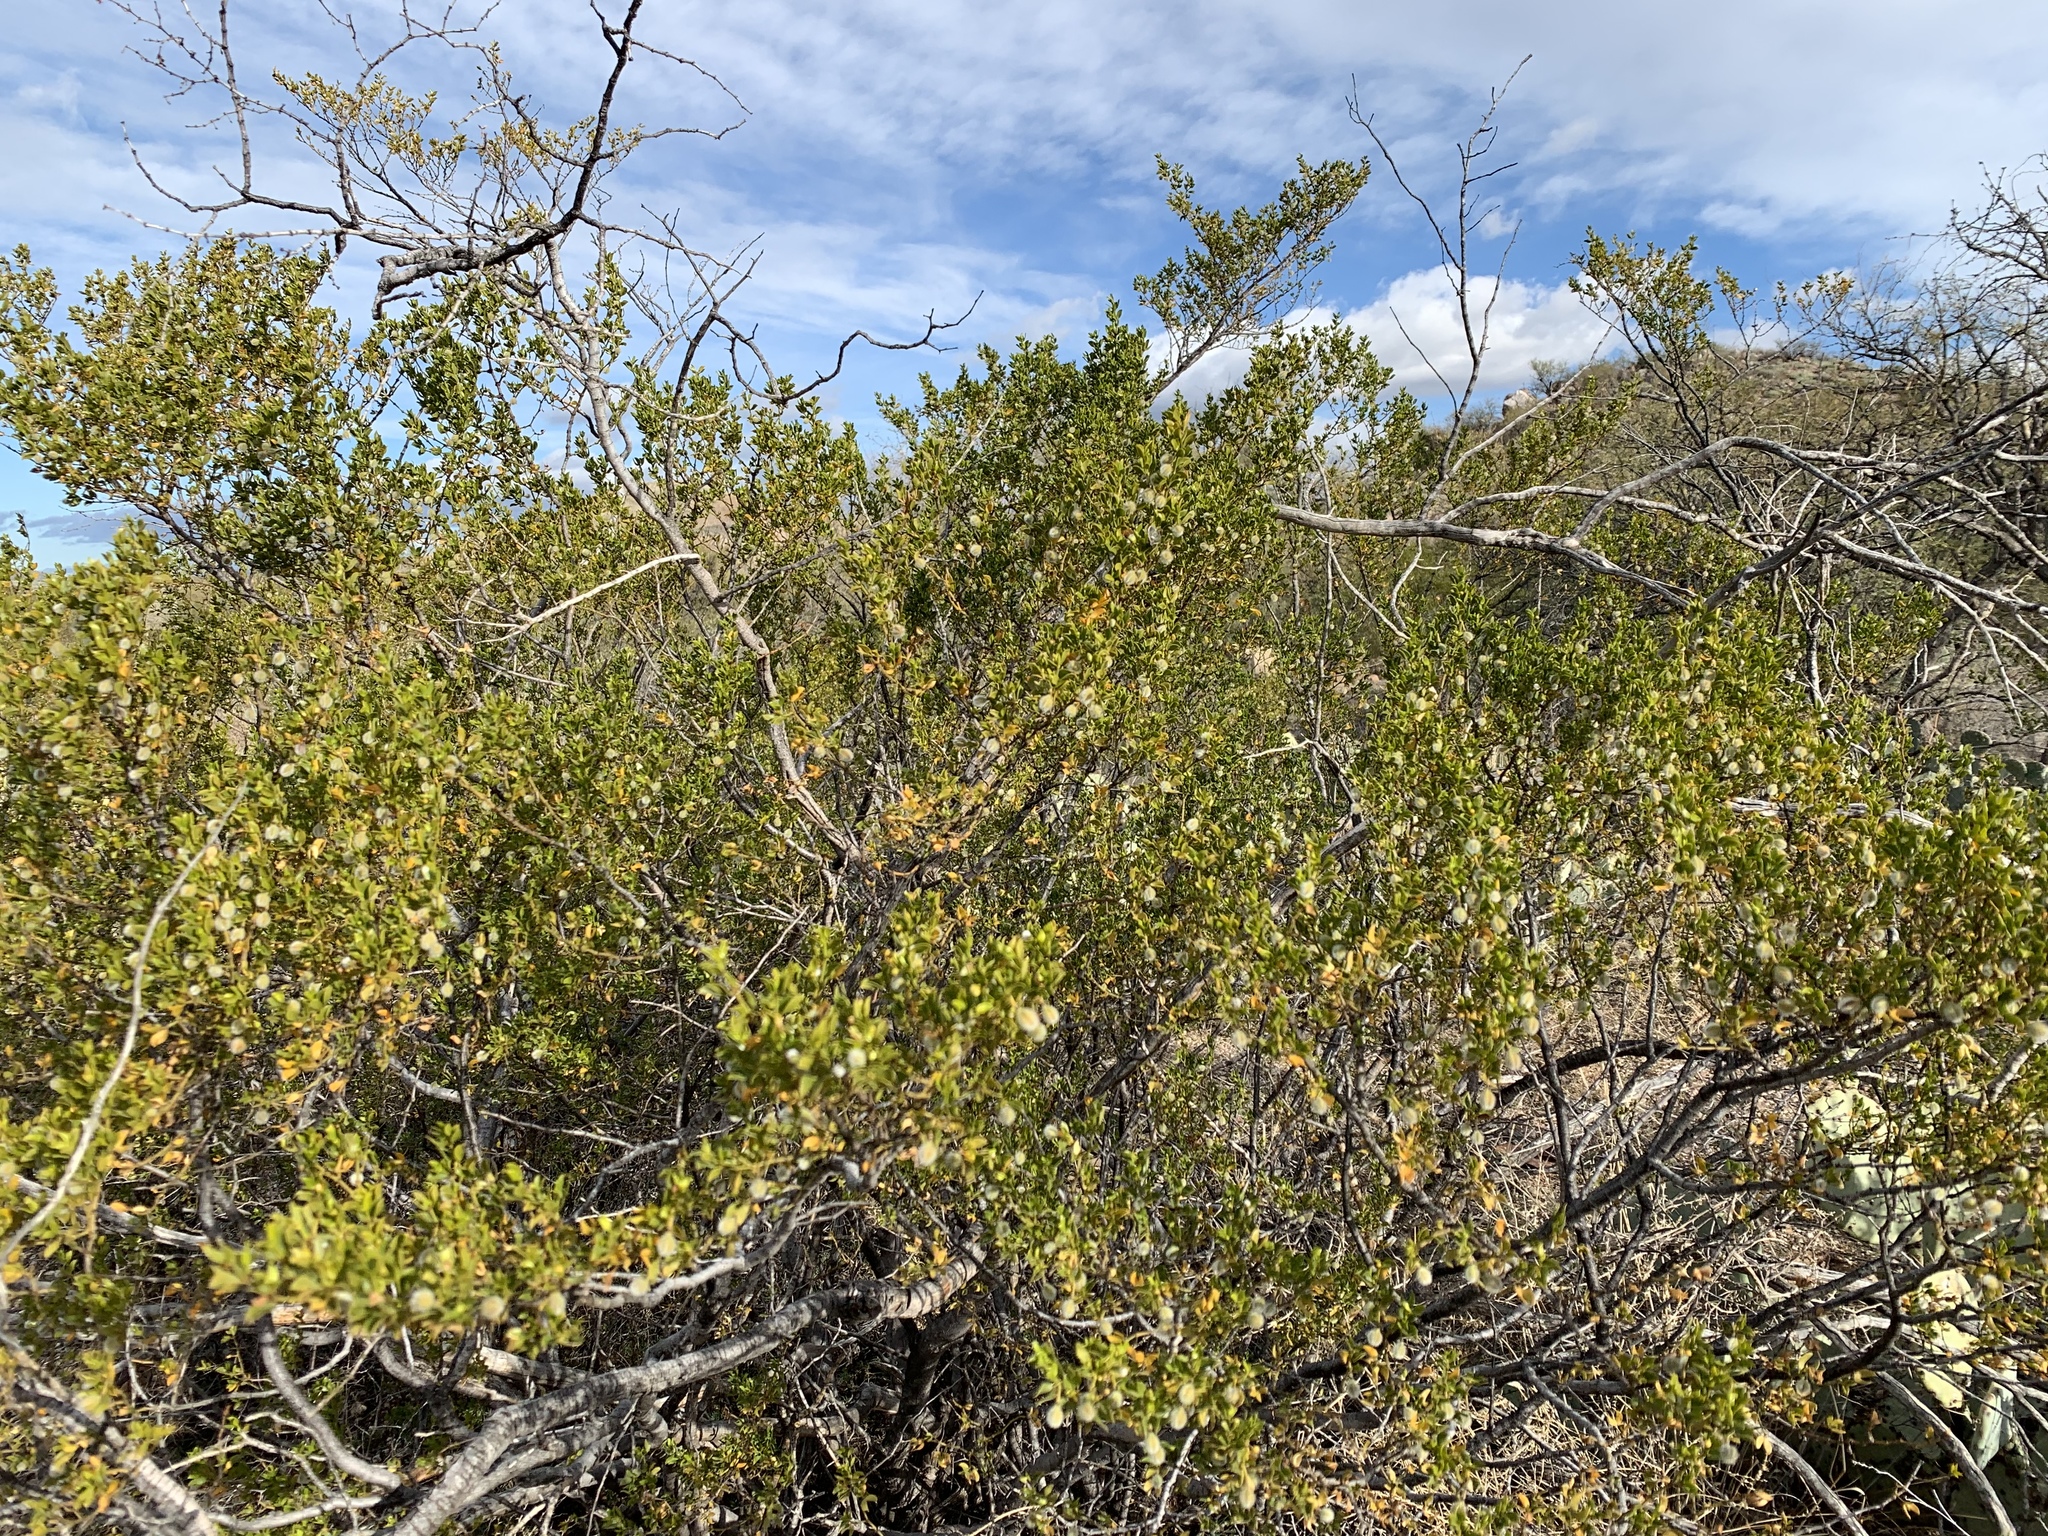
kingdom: Plantae
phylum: Tracheophyta
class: Magnoliopsida
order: Zygophyllales
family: Zygophyllaceae
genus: Larrea
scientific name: Larrea tridentata
